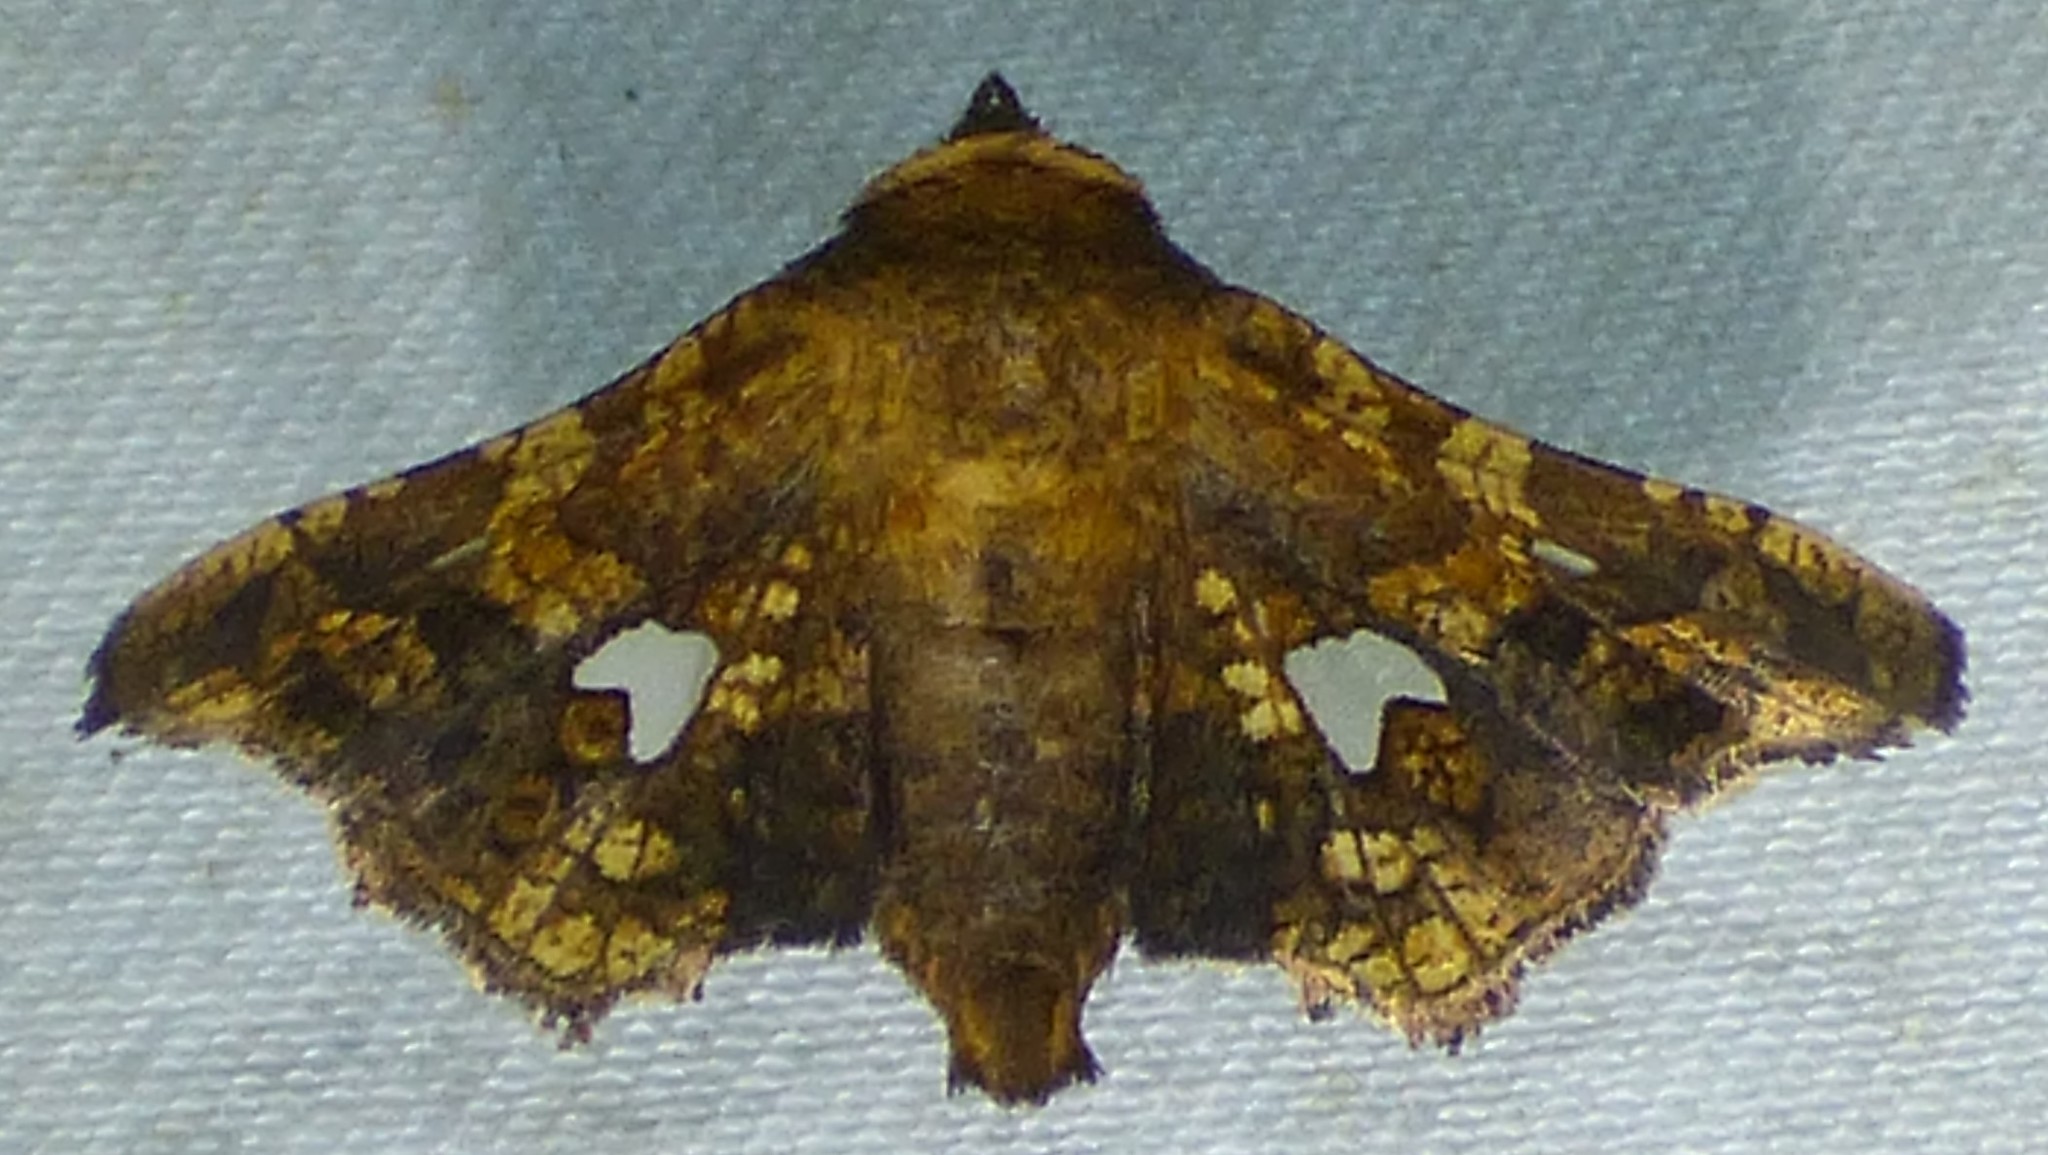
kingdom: Animalia
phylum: Arthropoda
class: Insecta
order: Lepidoptera
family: Thyrididae
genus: Dysodia
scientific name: Dysodia oculatana
